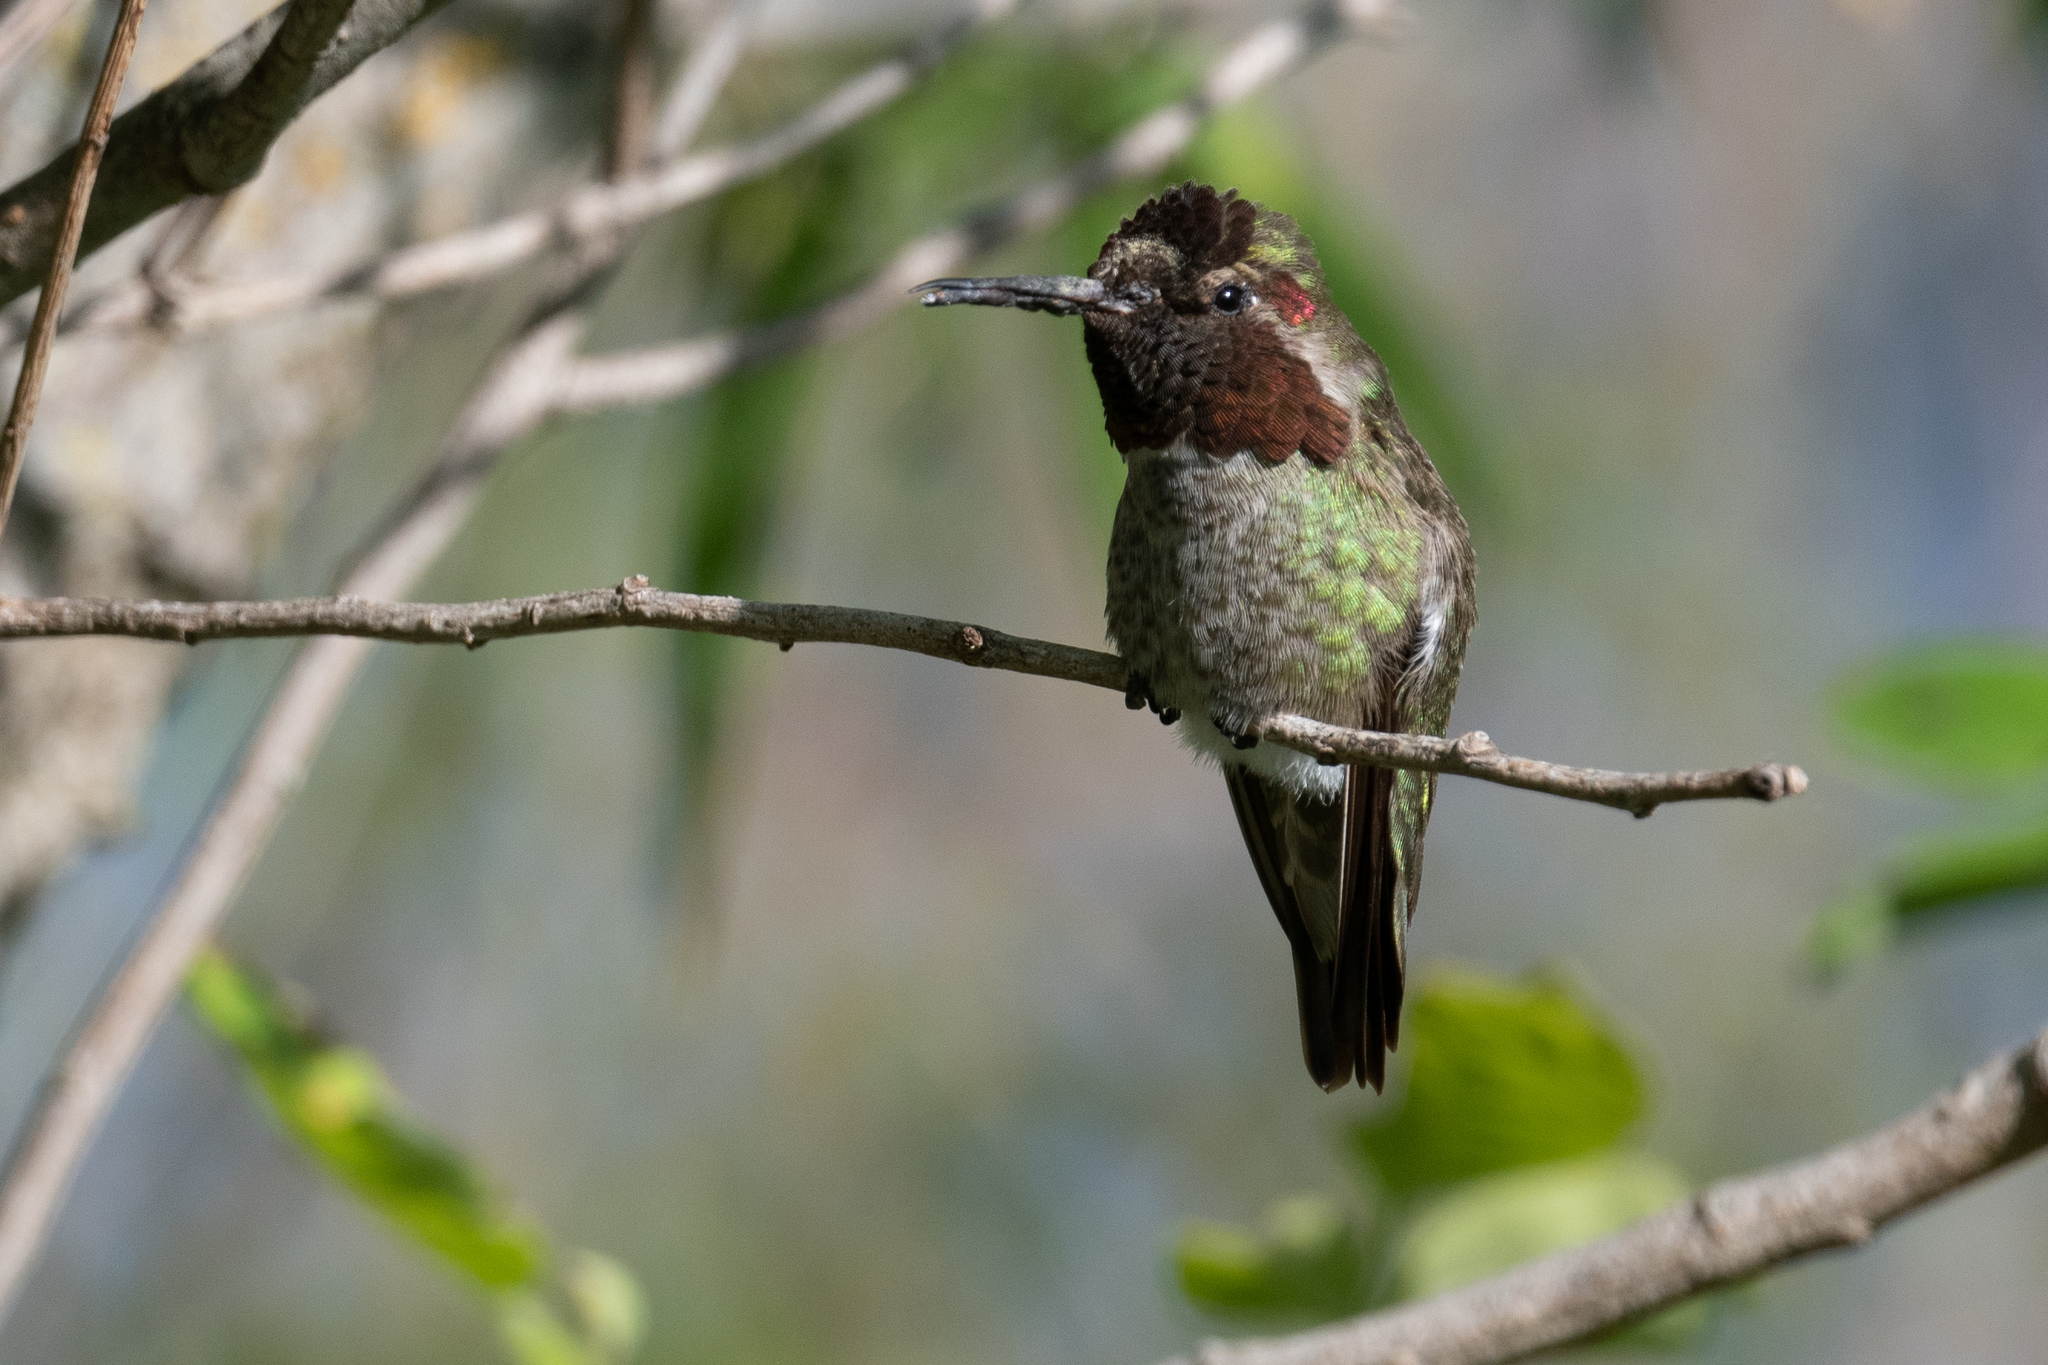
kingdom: Animalia
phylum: Chordata
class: Aves
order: Apodiformes
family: Trochilidae
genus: Calypte
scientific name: Calypte anna
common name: Anna's hummingbird
